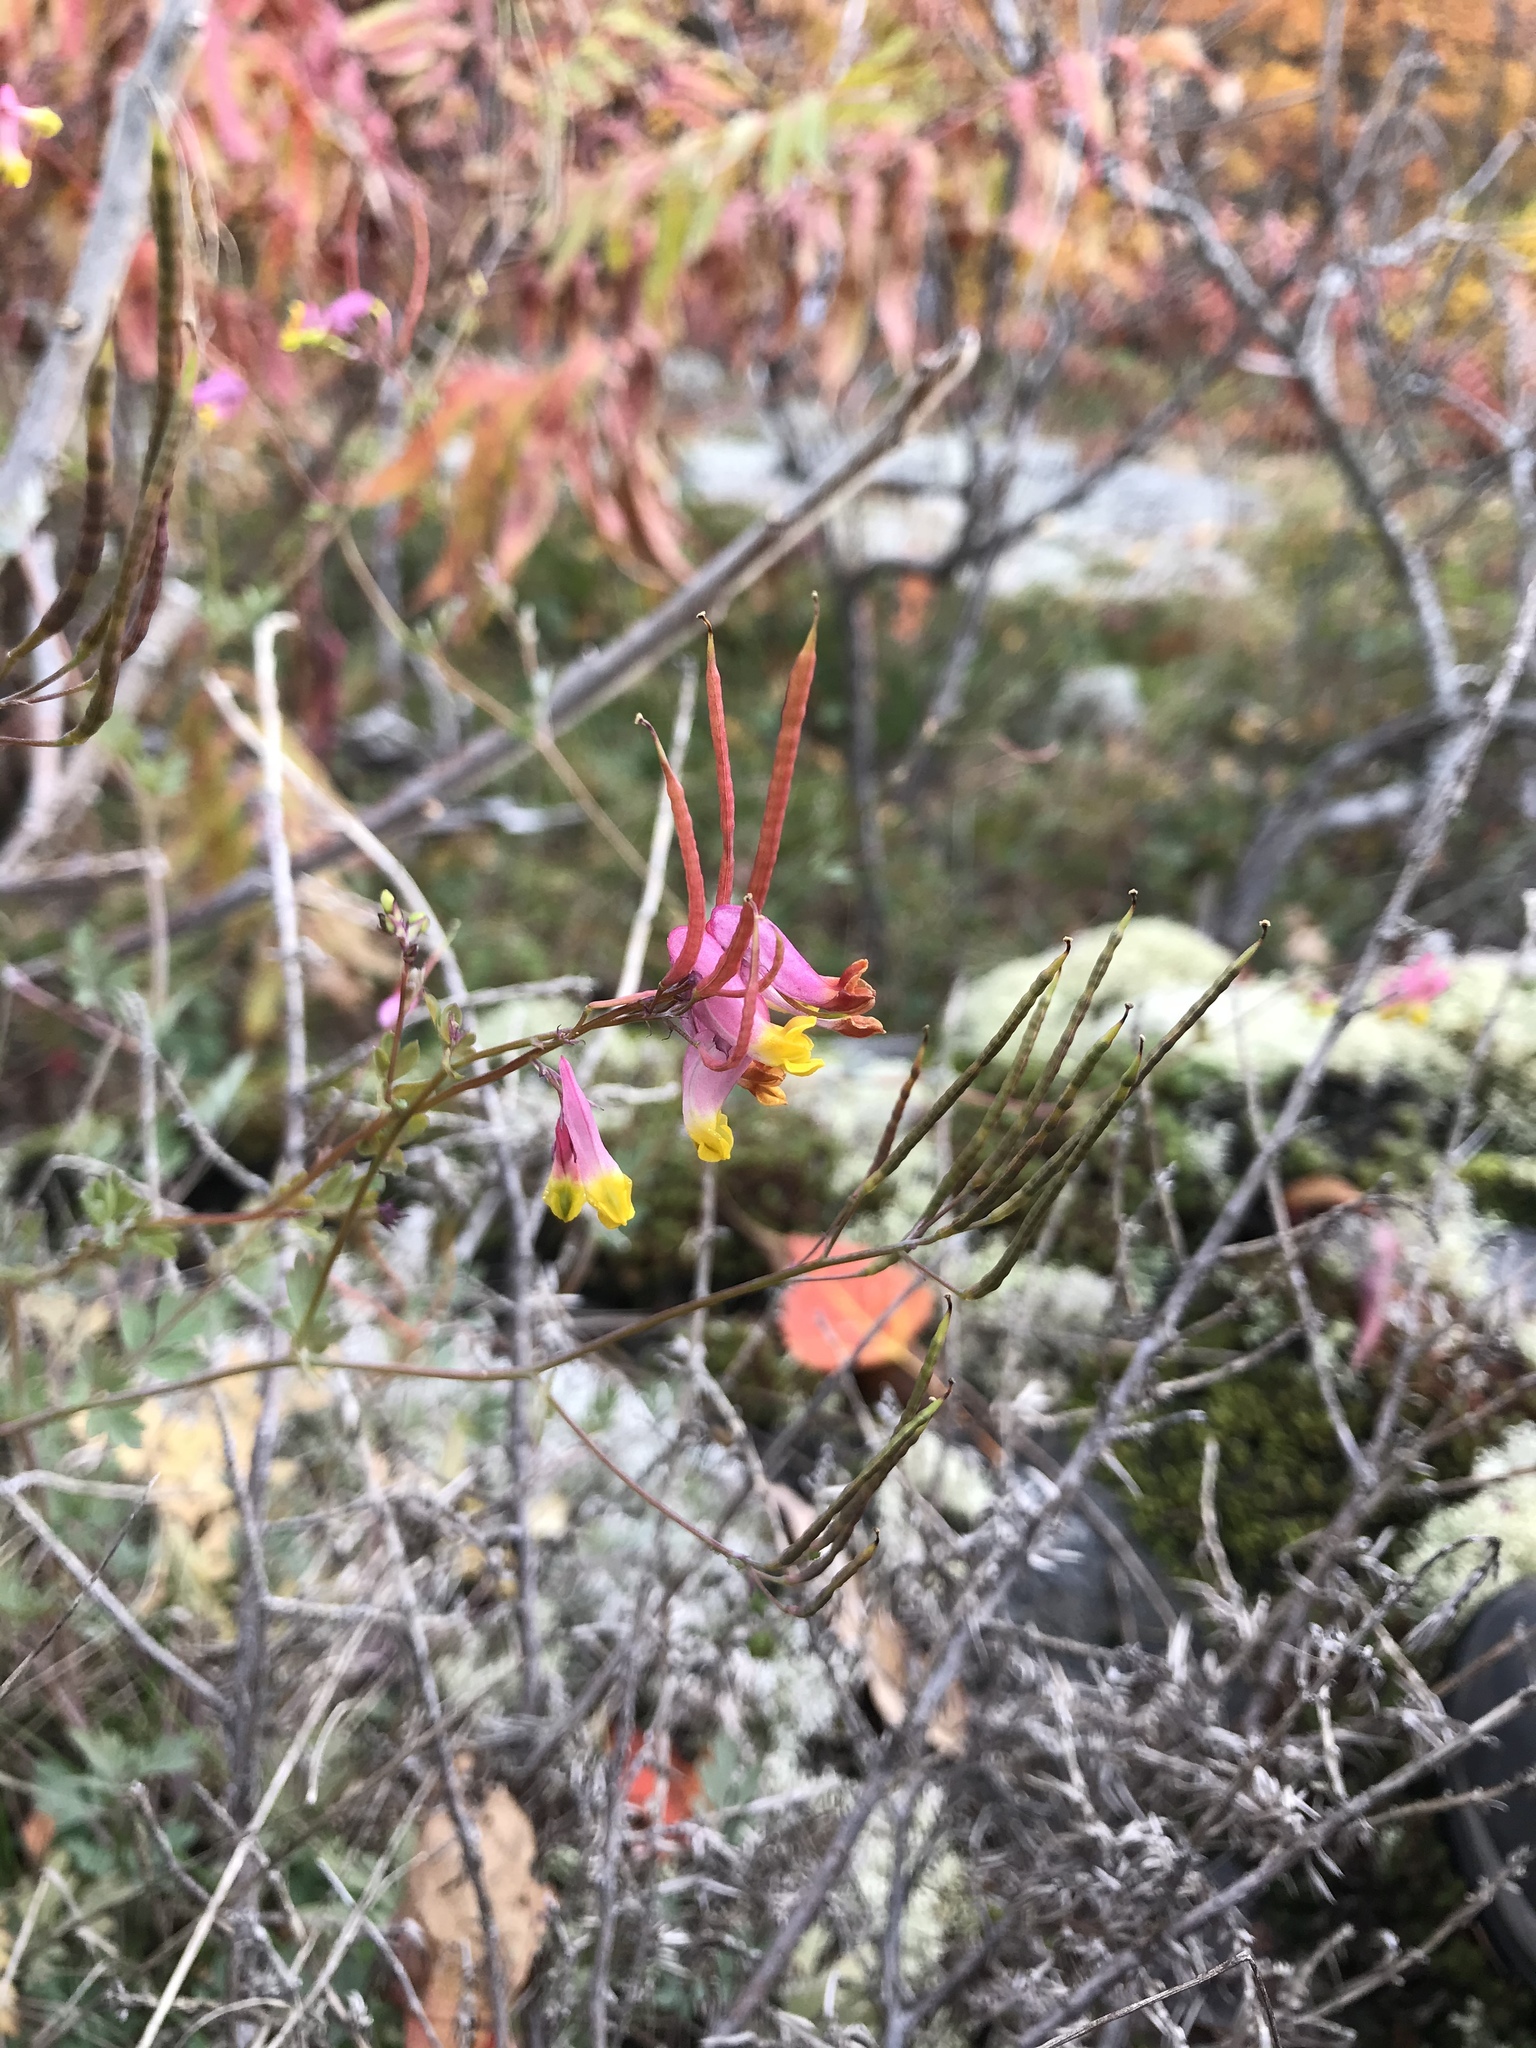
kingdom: Plantae
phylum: Tracheophyta
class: Magnoliopsida
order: Ranunculales
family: Papaveraceae
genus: Capnoides
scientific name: Capnoides sempervirens
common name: Rock harlequin
